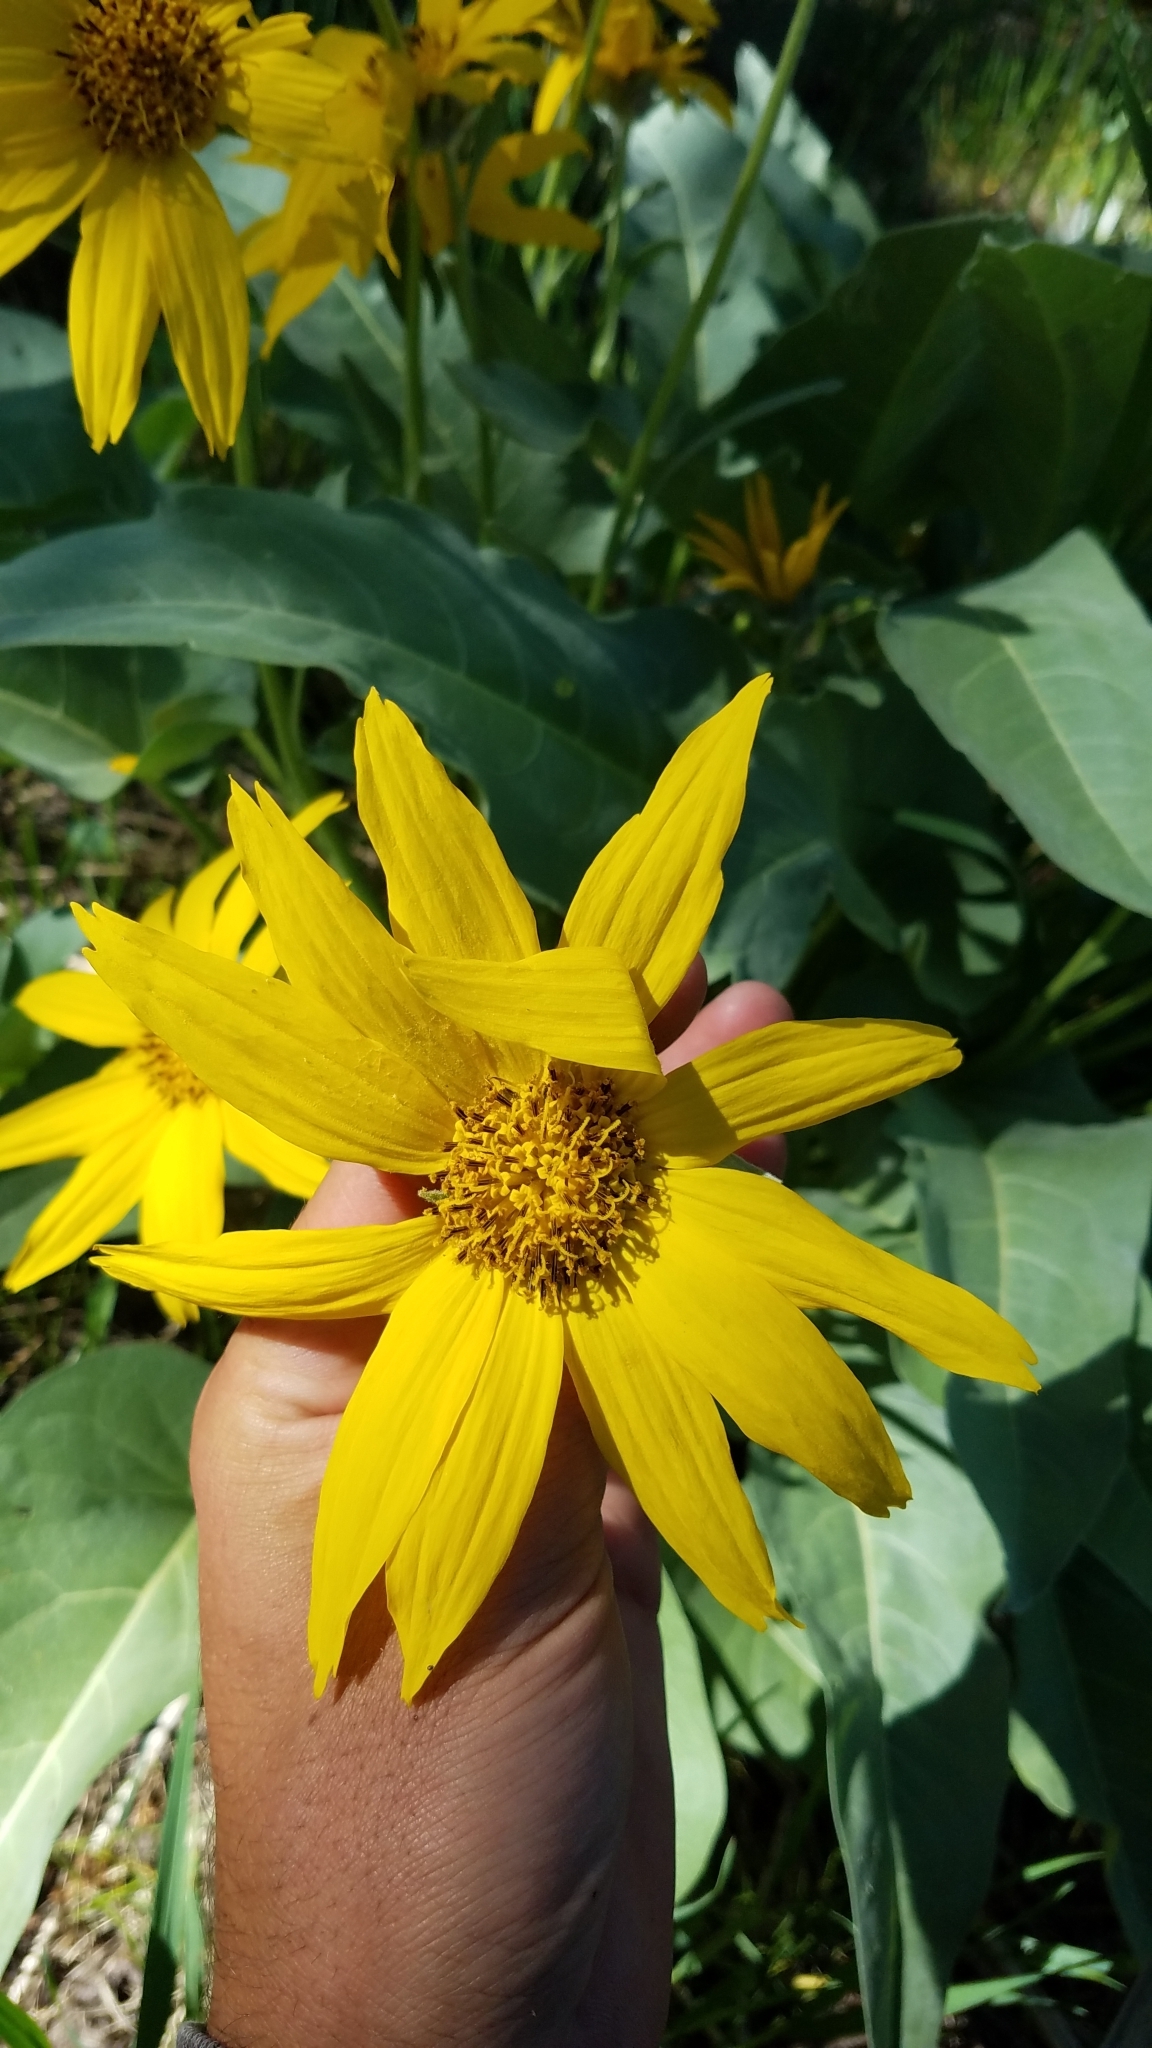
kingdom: Plantae
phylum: Tracheophyta
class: Magnoliopsida
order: Asterales
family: Asteraceae
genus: Wyethia
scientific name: Wyethia sagittata
